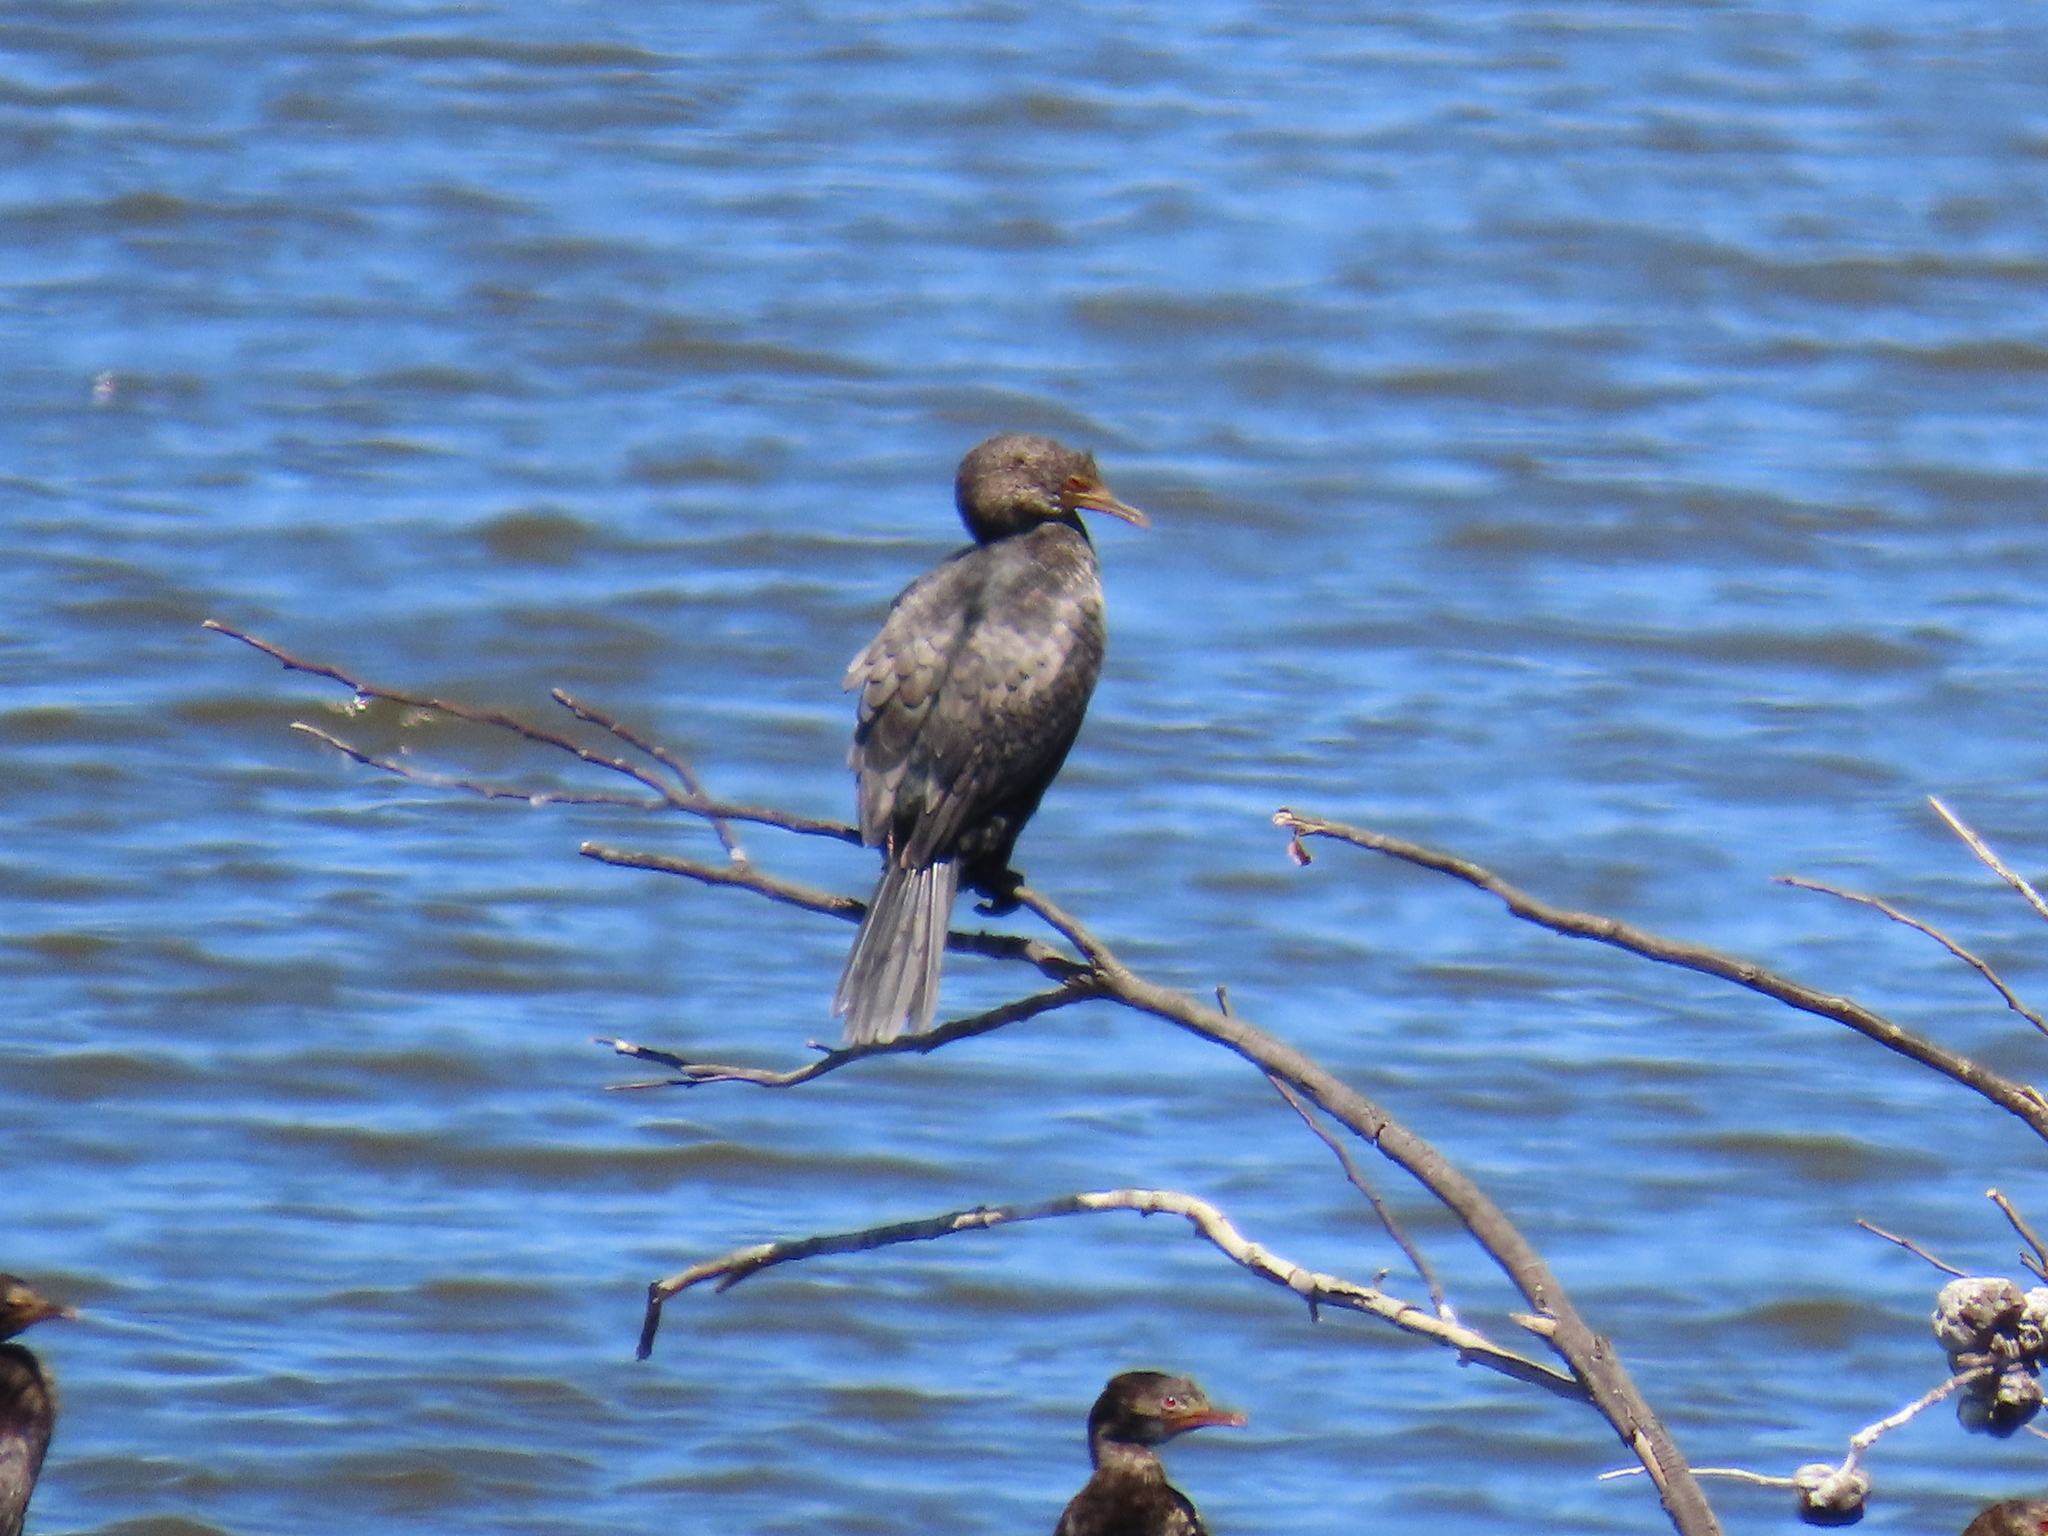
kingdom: Animalia
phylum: Chordata
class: Aves
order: Suliformes
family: Phalacrocoracidae
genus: Microcarbo
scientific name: Microcarbo africanus
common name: Long-tailed cormorant
